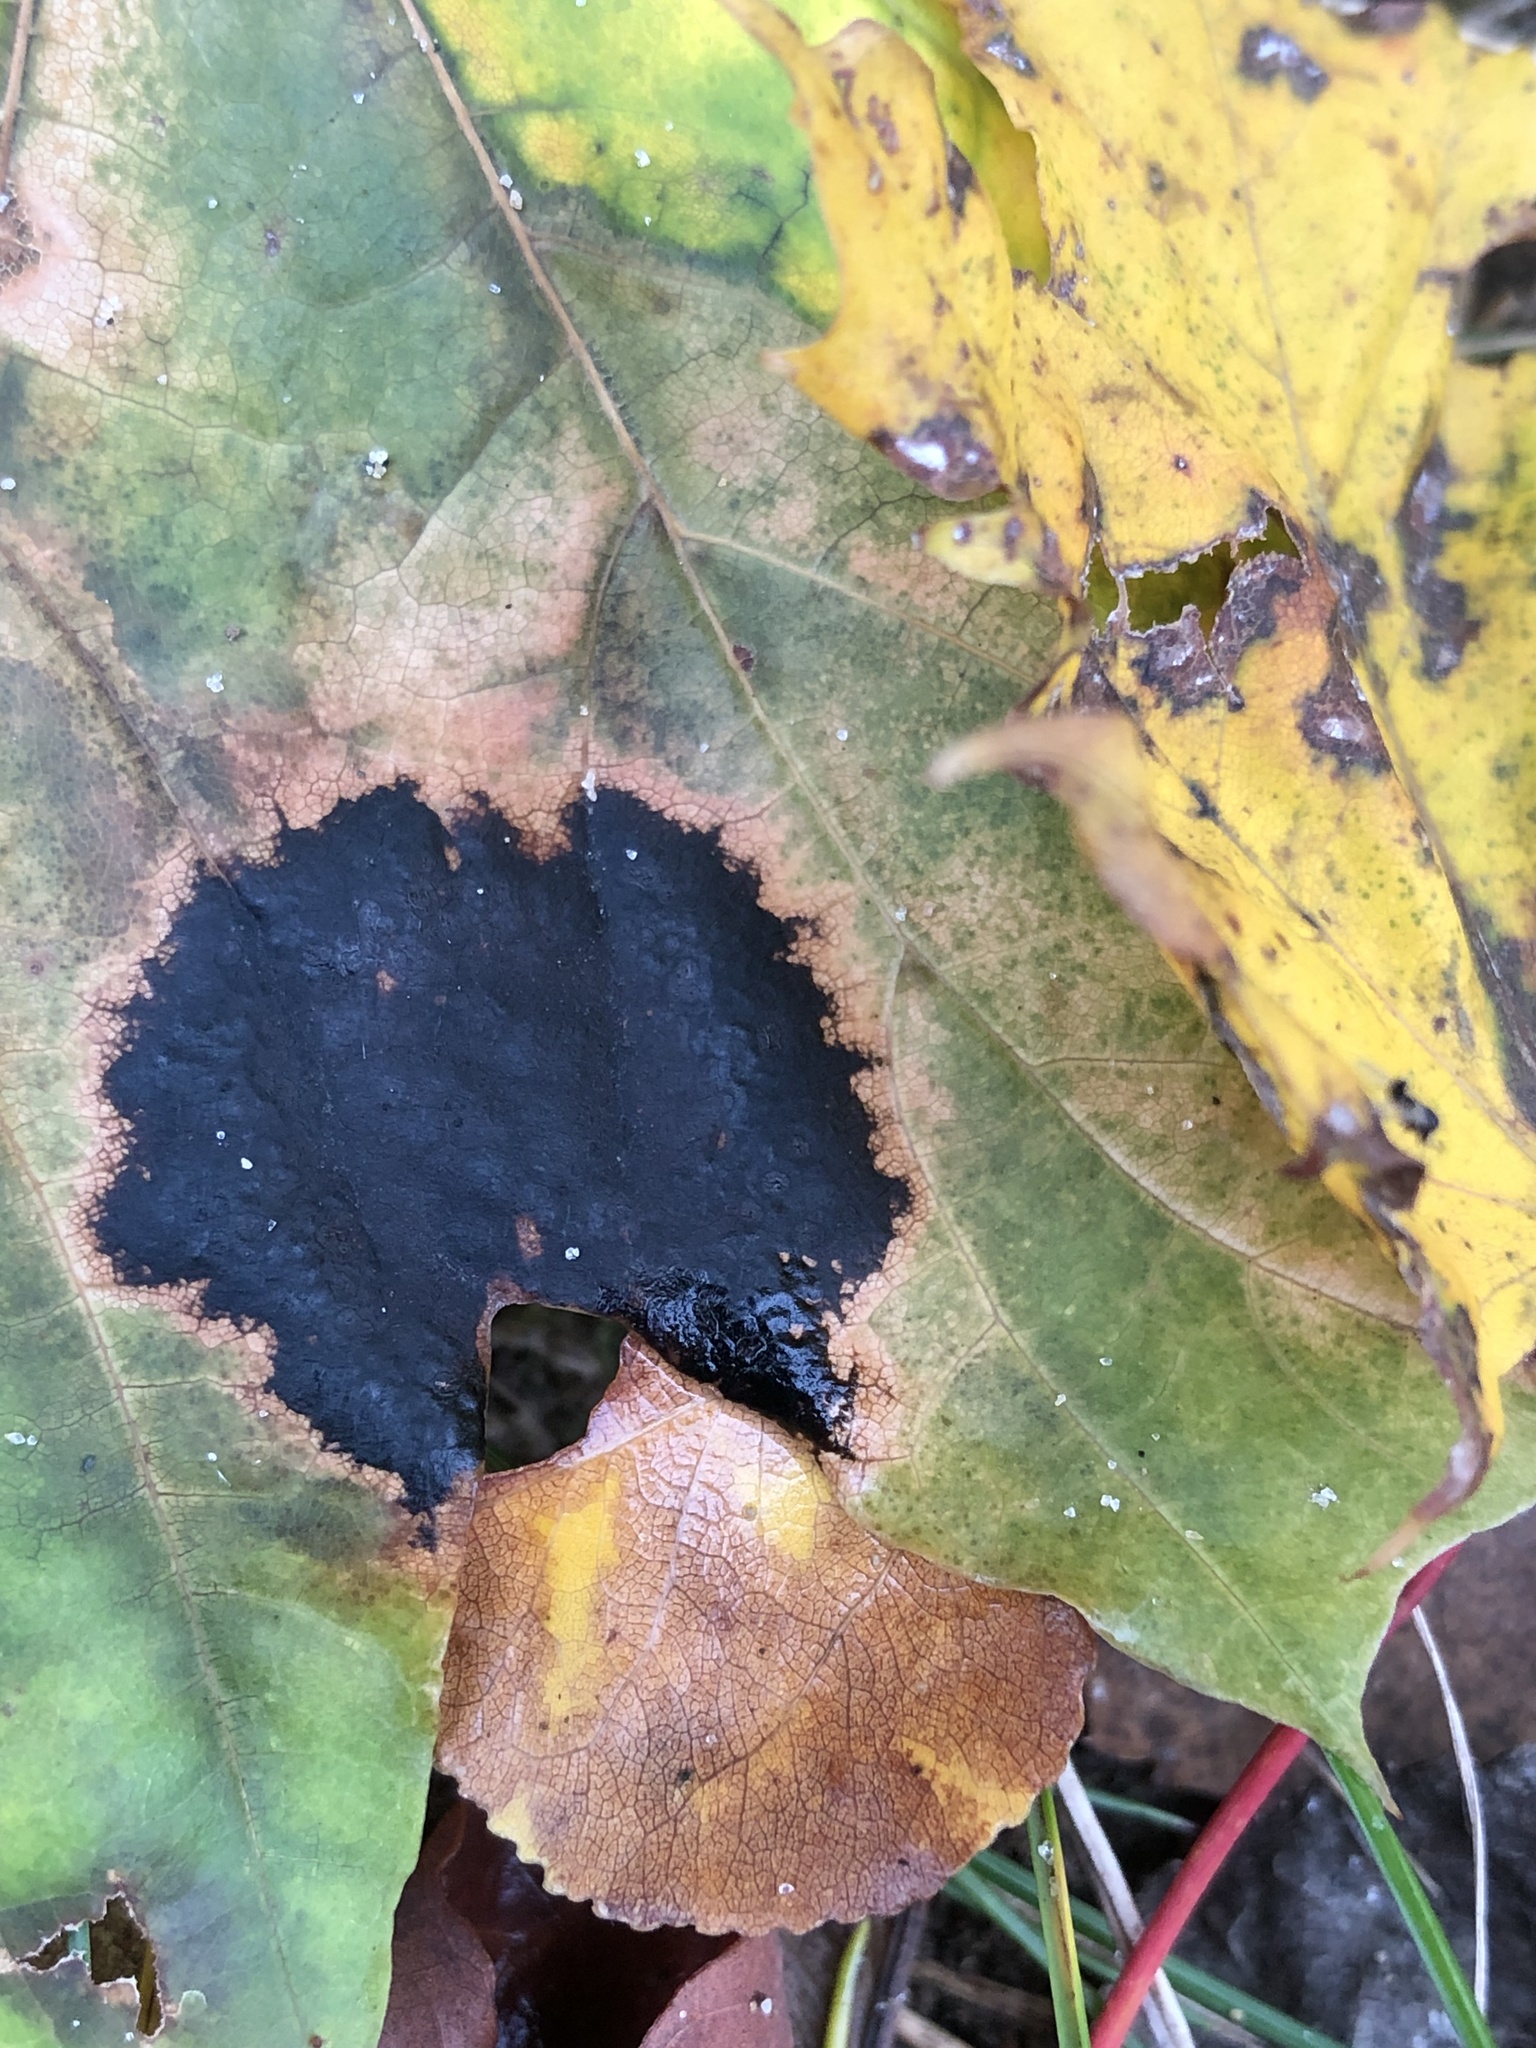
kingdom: Fungi
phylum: Ascomycota
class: Leotiomycetes
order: Rhytismatales
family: Rhytismataceae
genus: Rhytisma
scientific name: Rhytisma acerinum
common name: European tar spot
